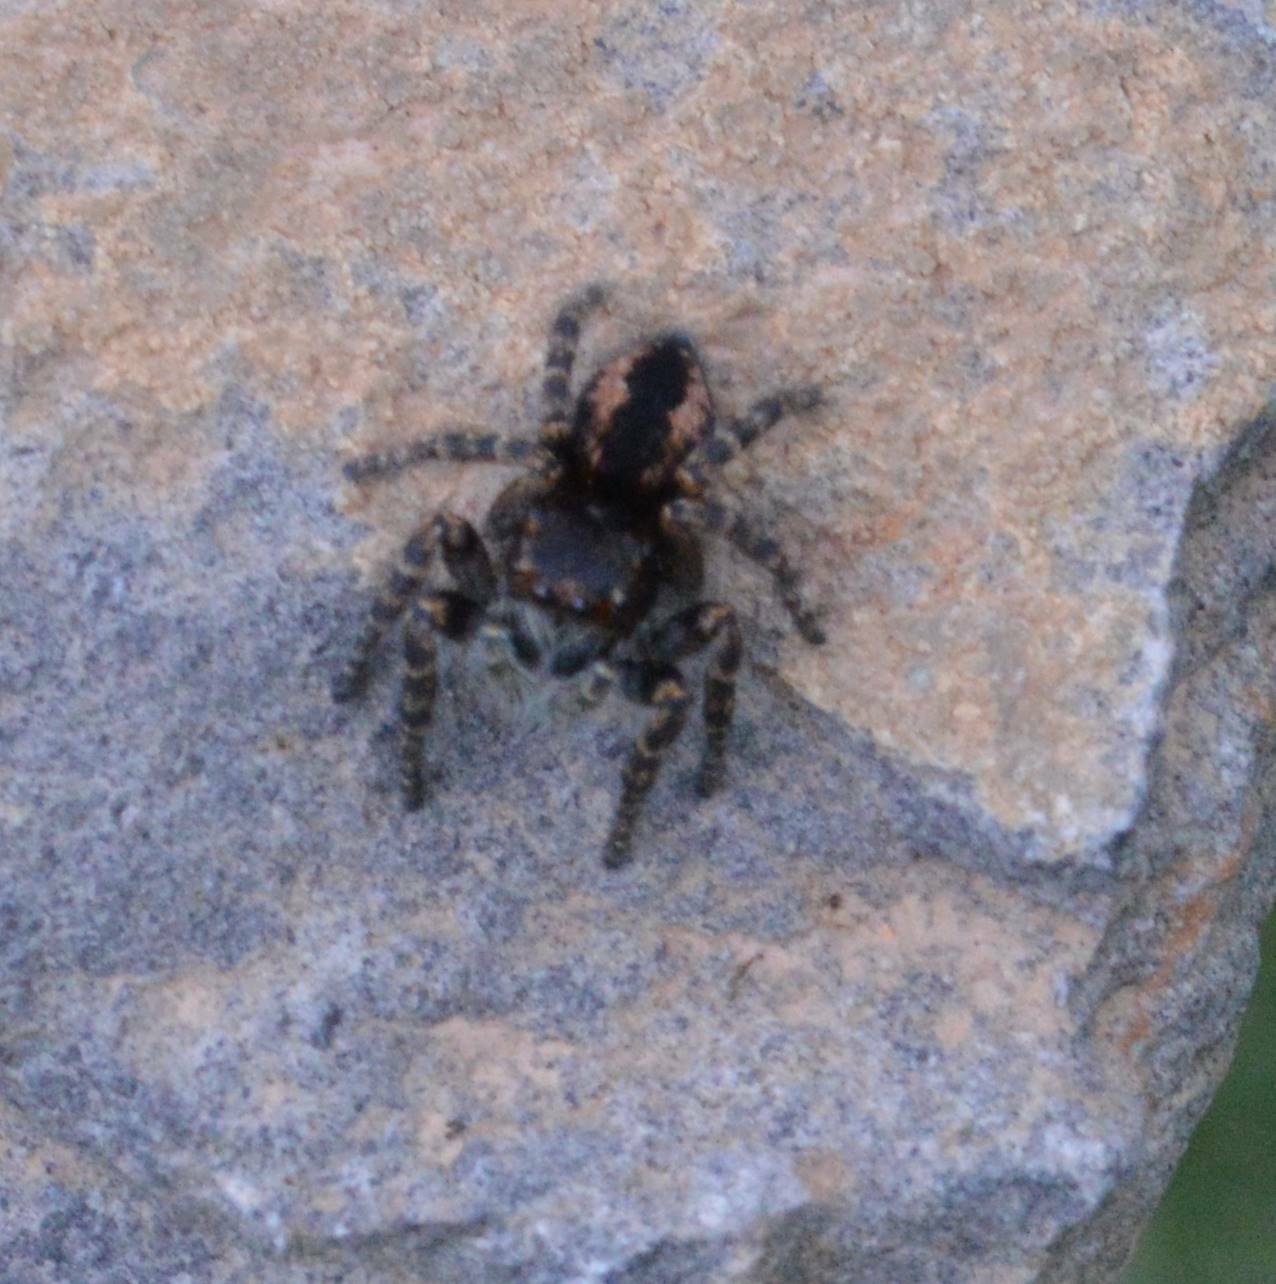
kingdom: Animalia
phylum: Arthropoda
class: Arachnida
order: Araneae
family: Salticidae
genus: Philaeus
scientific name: Philaeus chrysops
